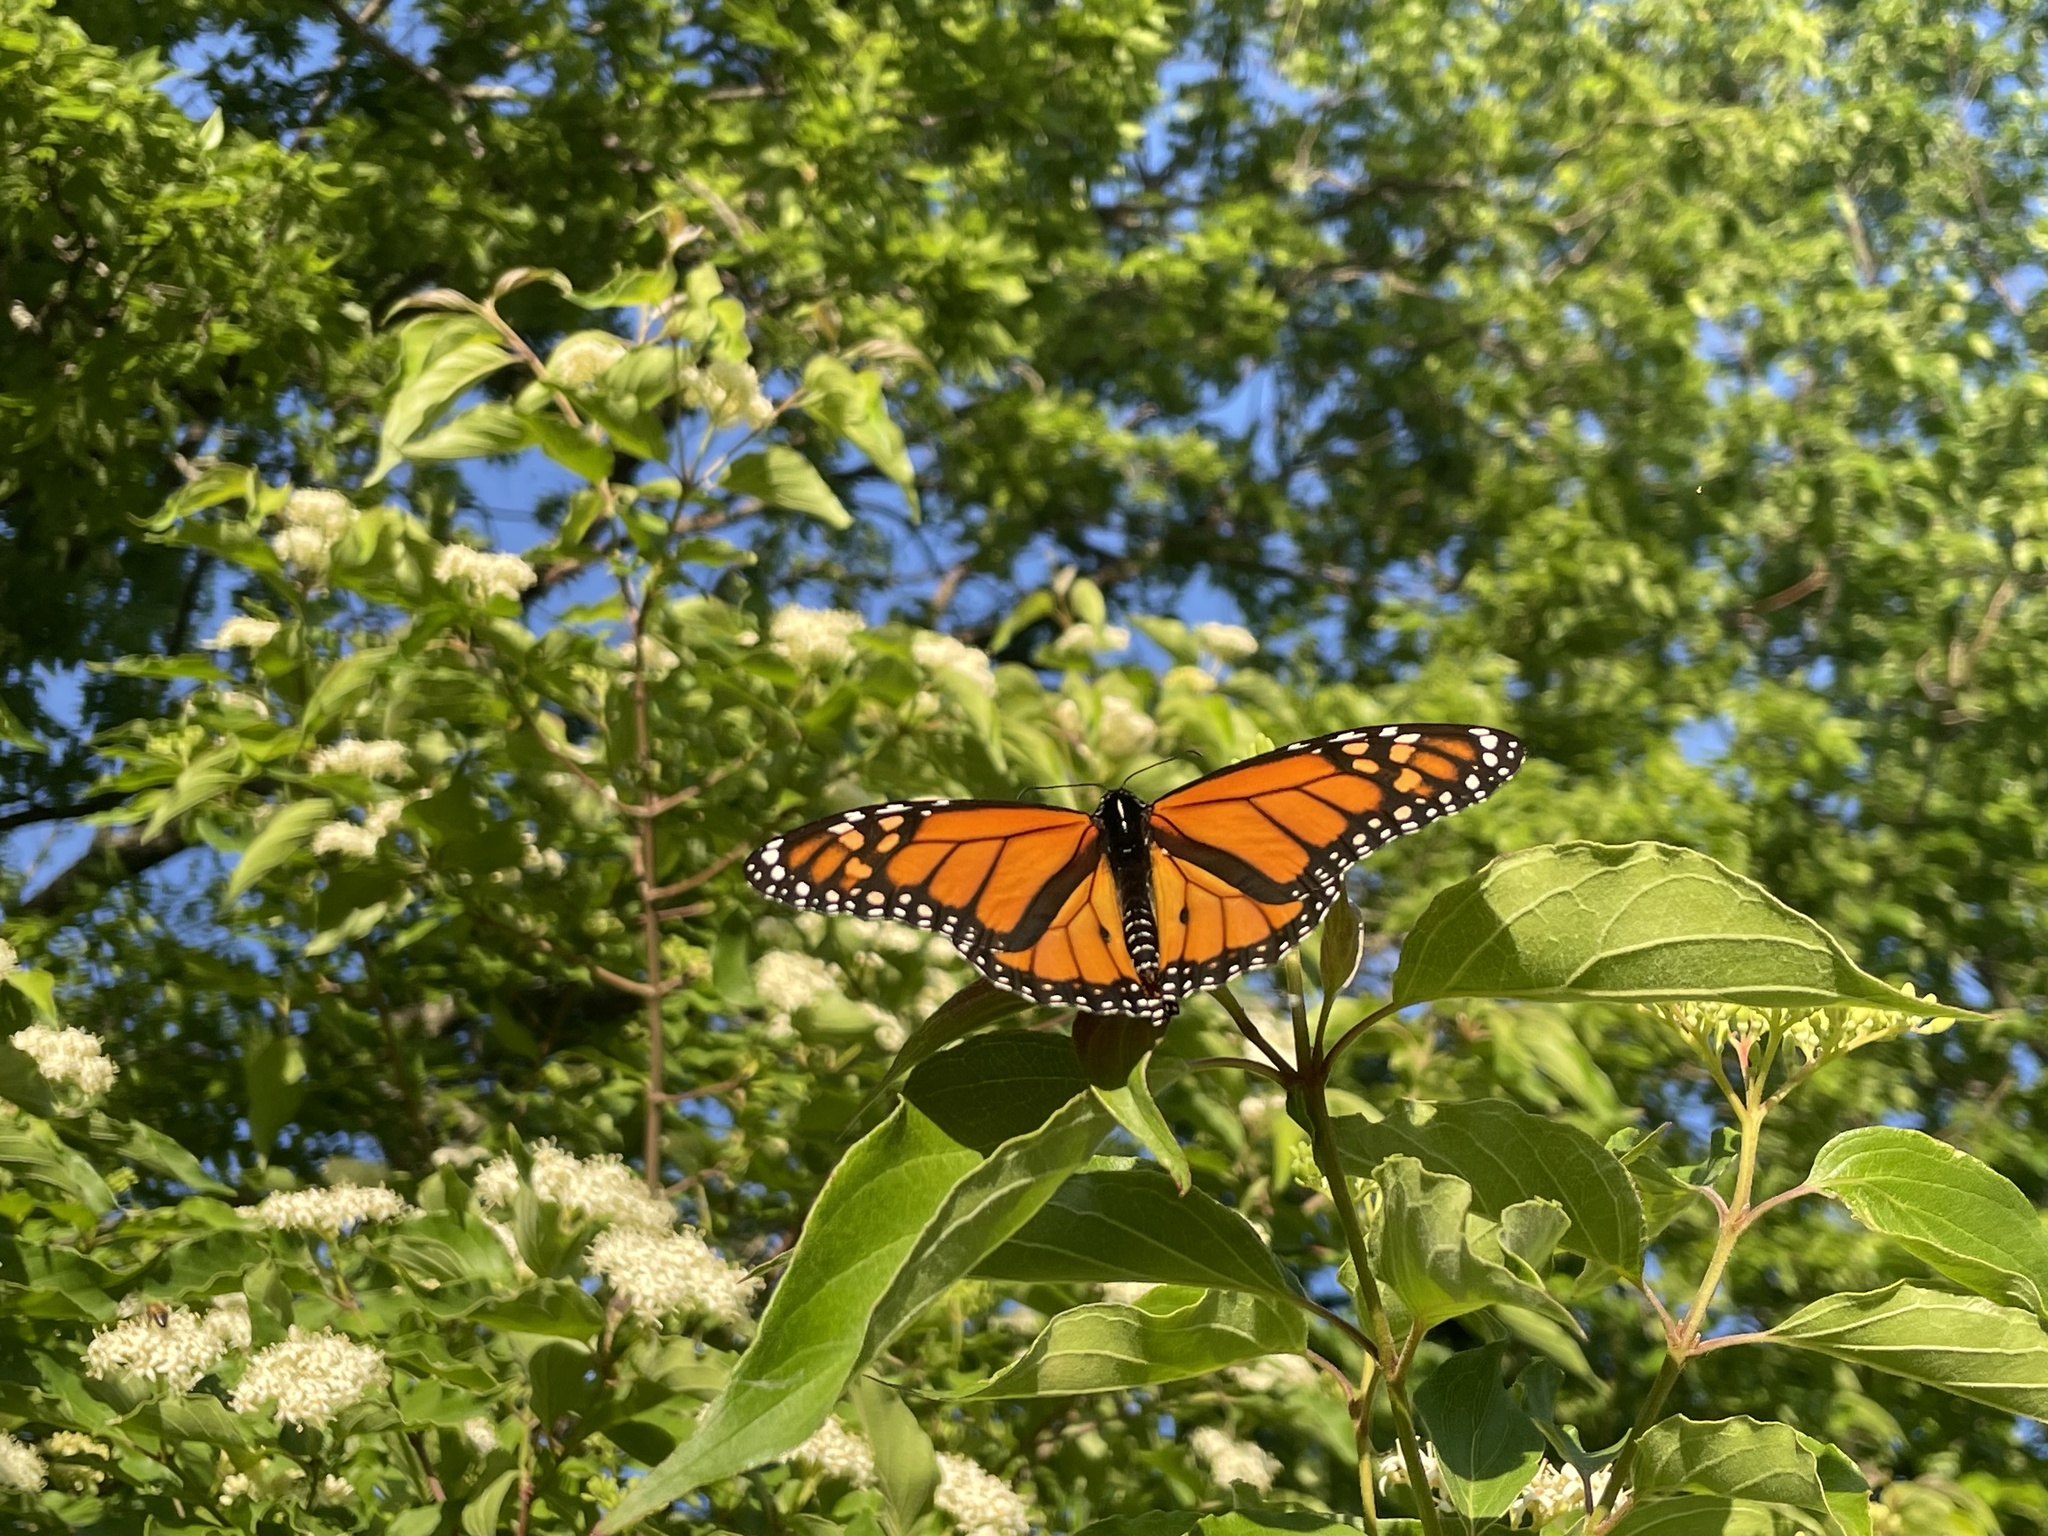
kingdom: Animalia
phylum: Arthropoda
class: Insecta
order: Lepidoptera
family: Nymphalidae
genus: Danaus
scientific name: Danaus plexippus
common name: Monarch
